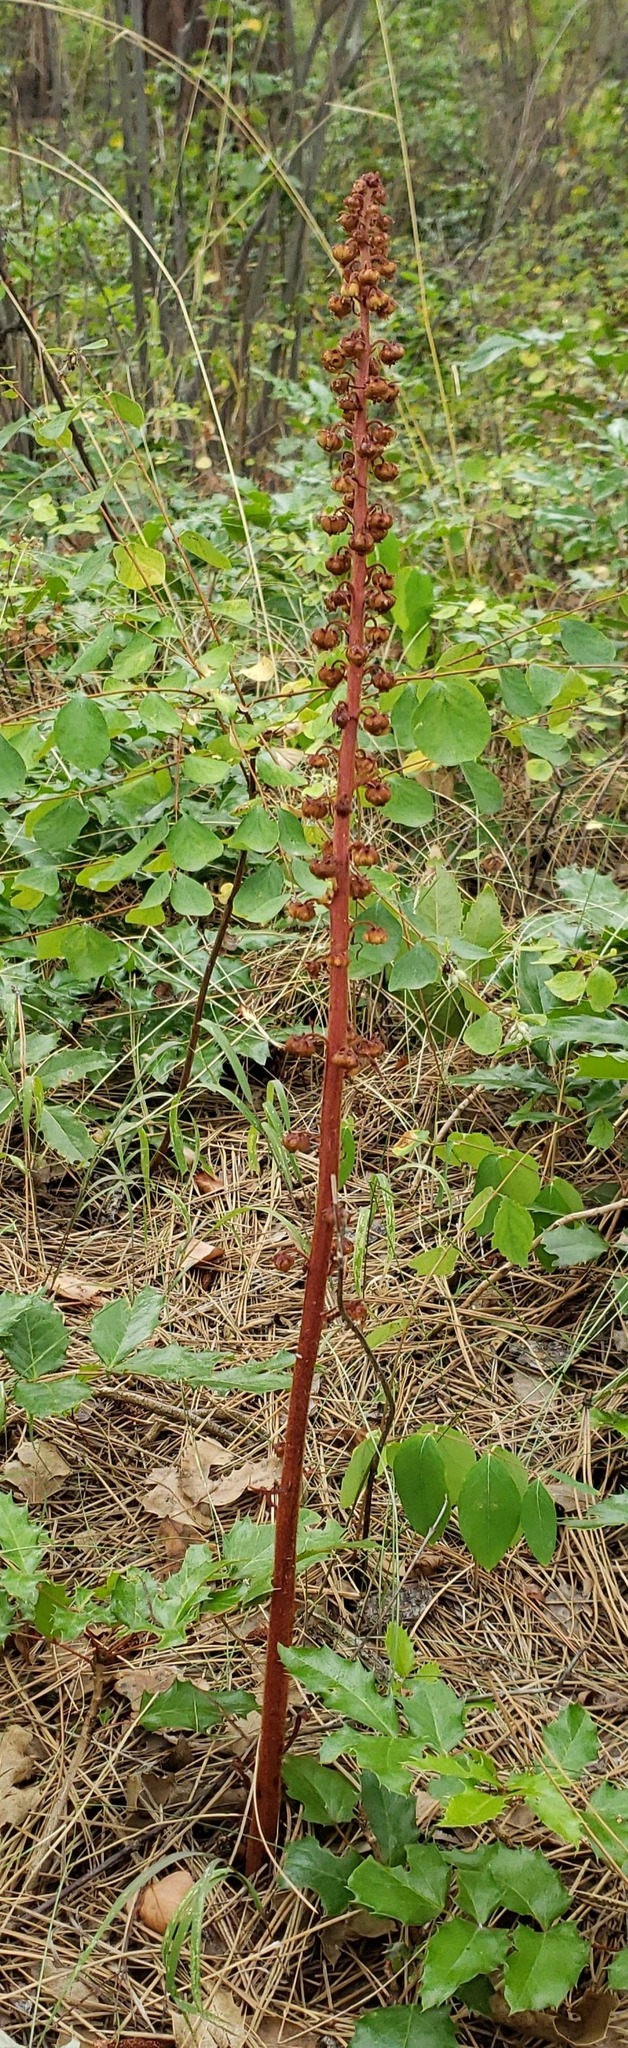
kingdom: Plantae
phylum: Tracheophyta
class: Magnoliopsida
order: Ericales
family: Ericaceae
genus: Pterospora
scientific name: Pterospora andromedea
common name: Giant bird's-nest
